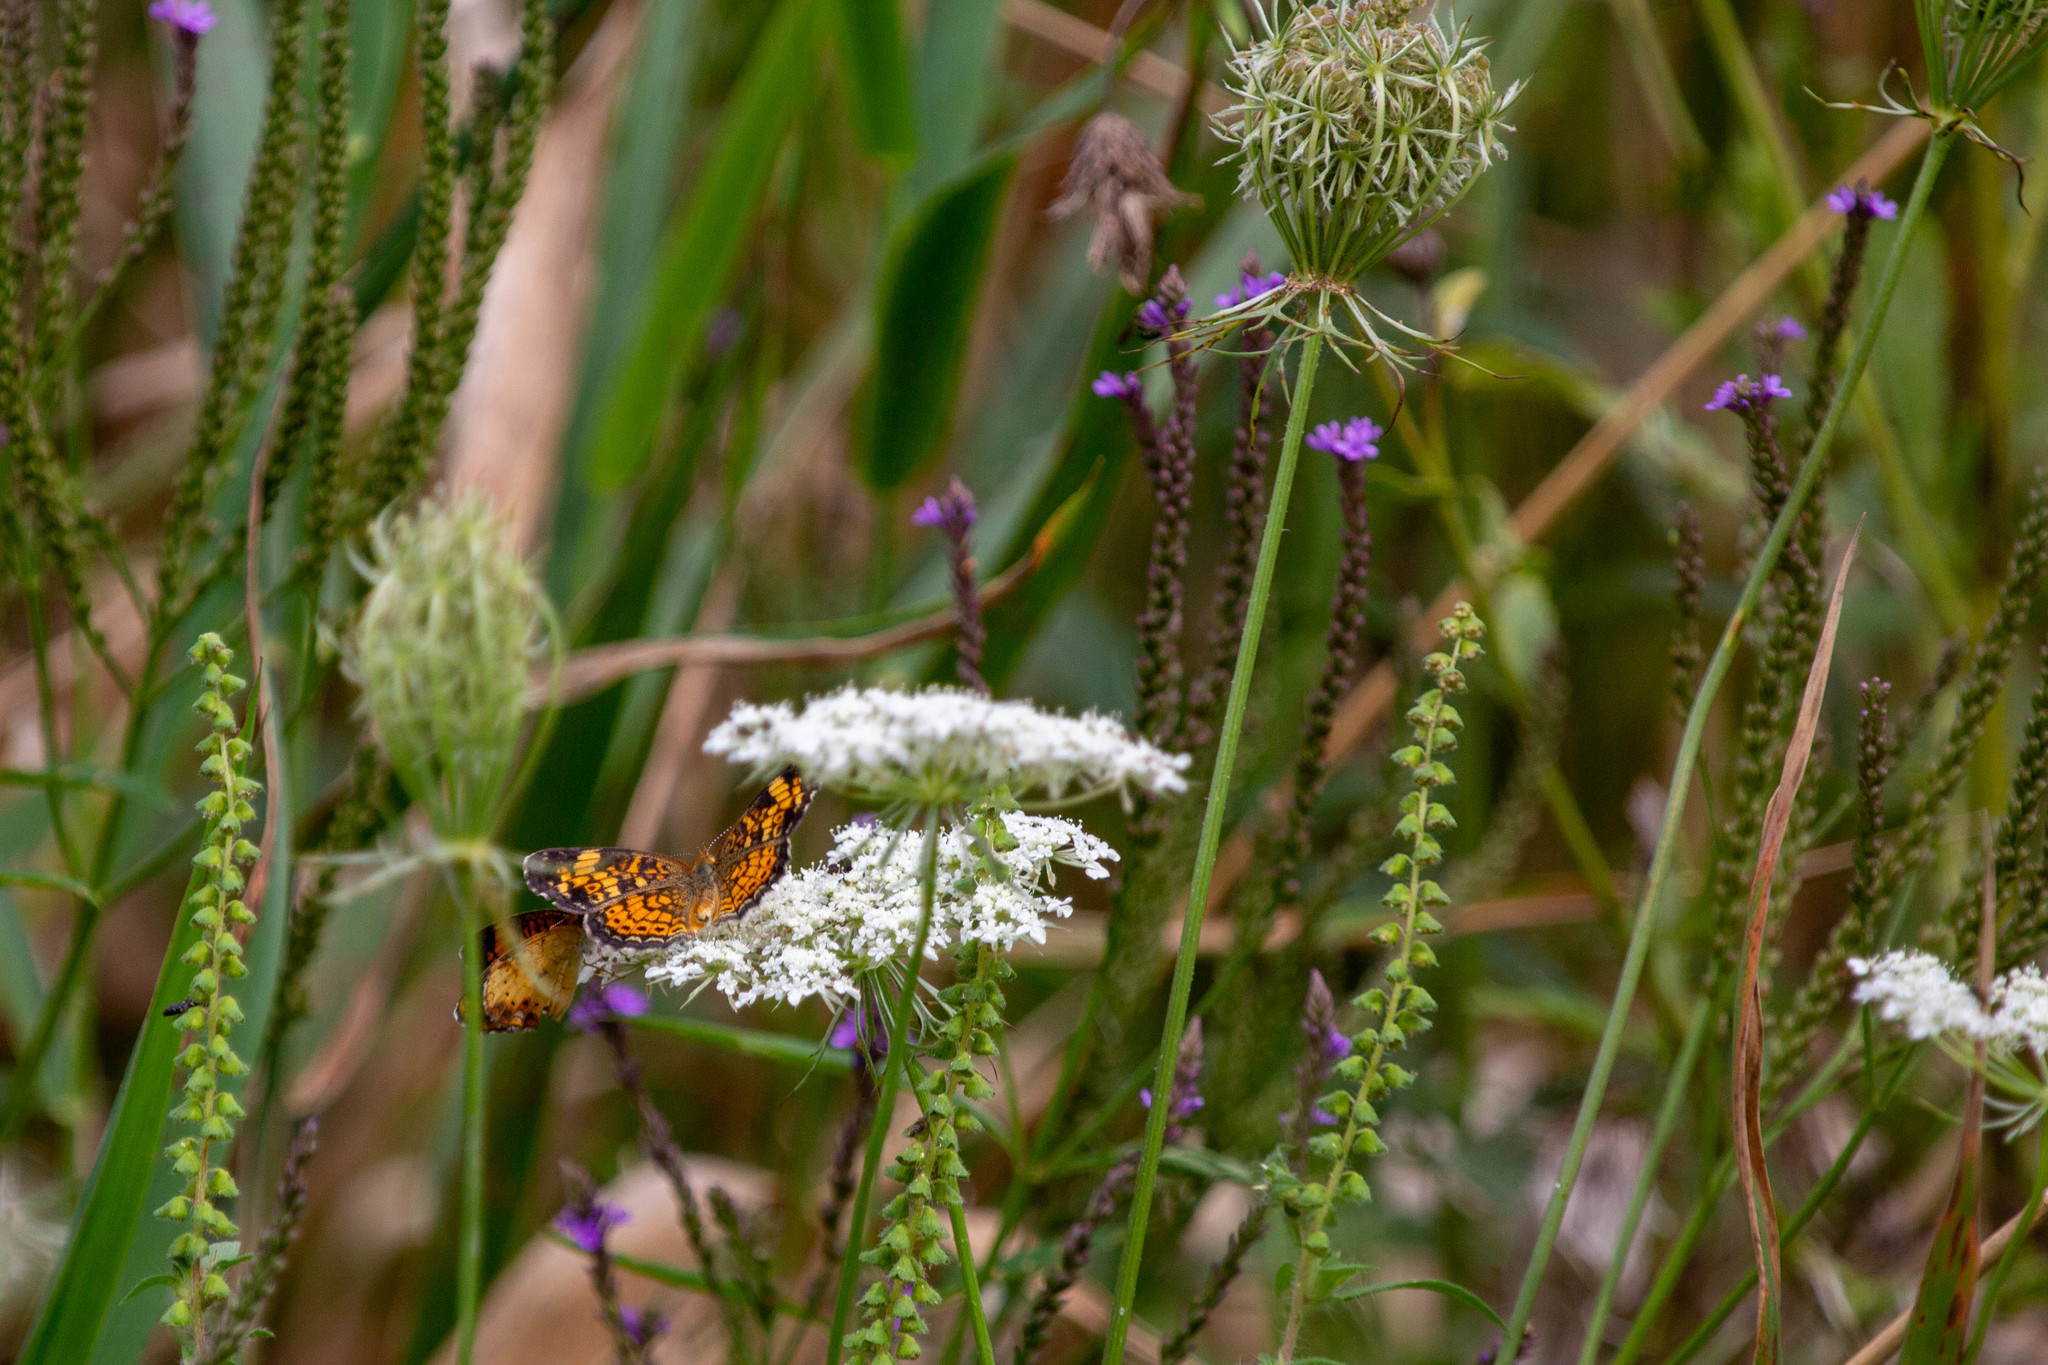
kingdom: Animalia
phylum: Arthropoda
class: Insecta
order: Lepidoptera
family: Nymphalidae
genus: Phyciodes
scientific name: Phyciodes tharos
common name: Pearl crescent
